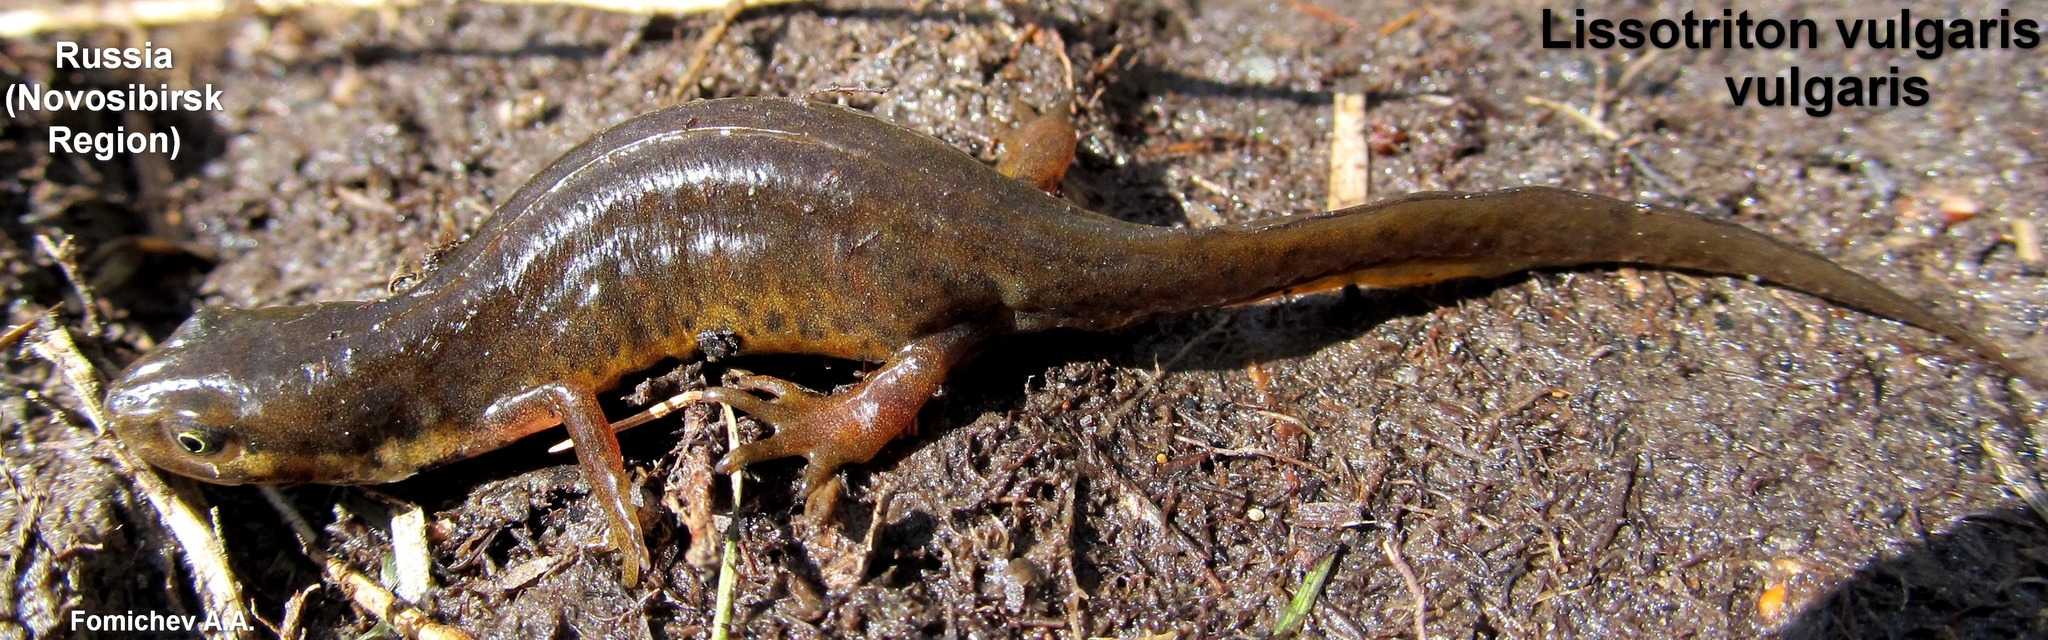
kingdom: Animalia
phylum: Chordata
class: Amphibia
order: Caudata
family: Salamandridae
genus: Lissotriton
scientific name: Lissotriton vulgaris
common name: Smooth newt
